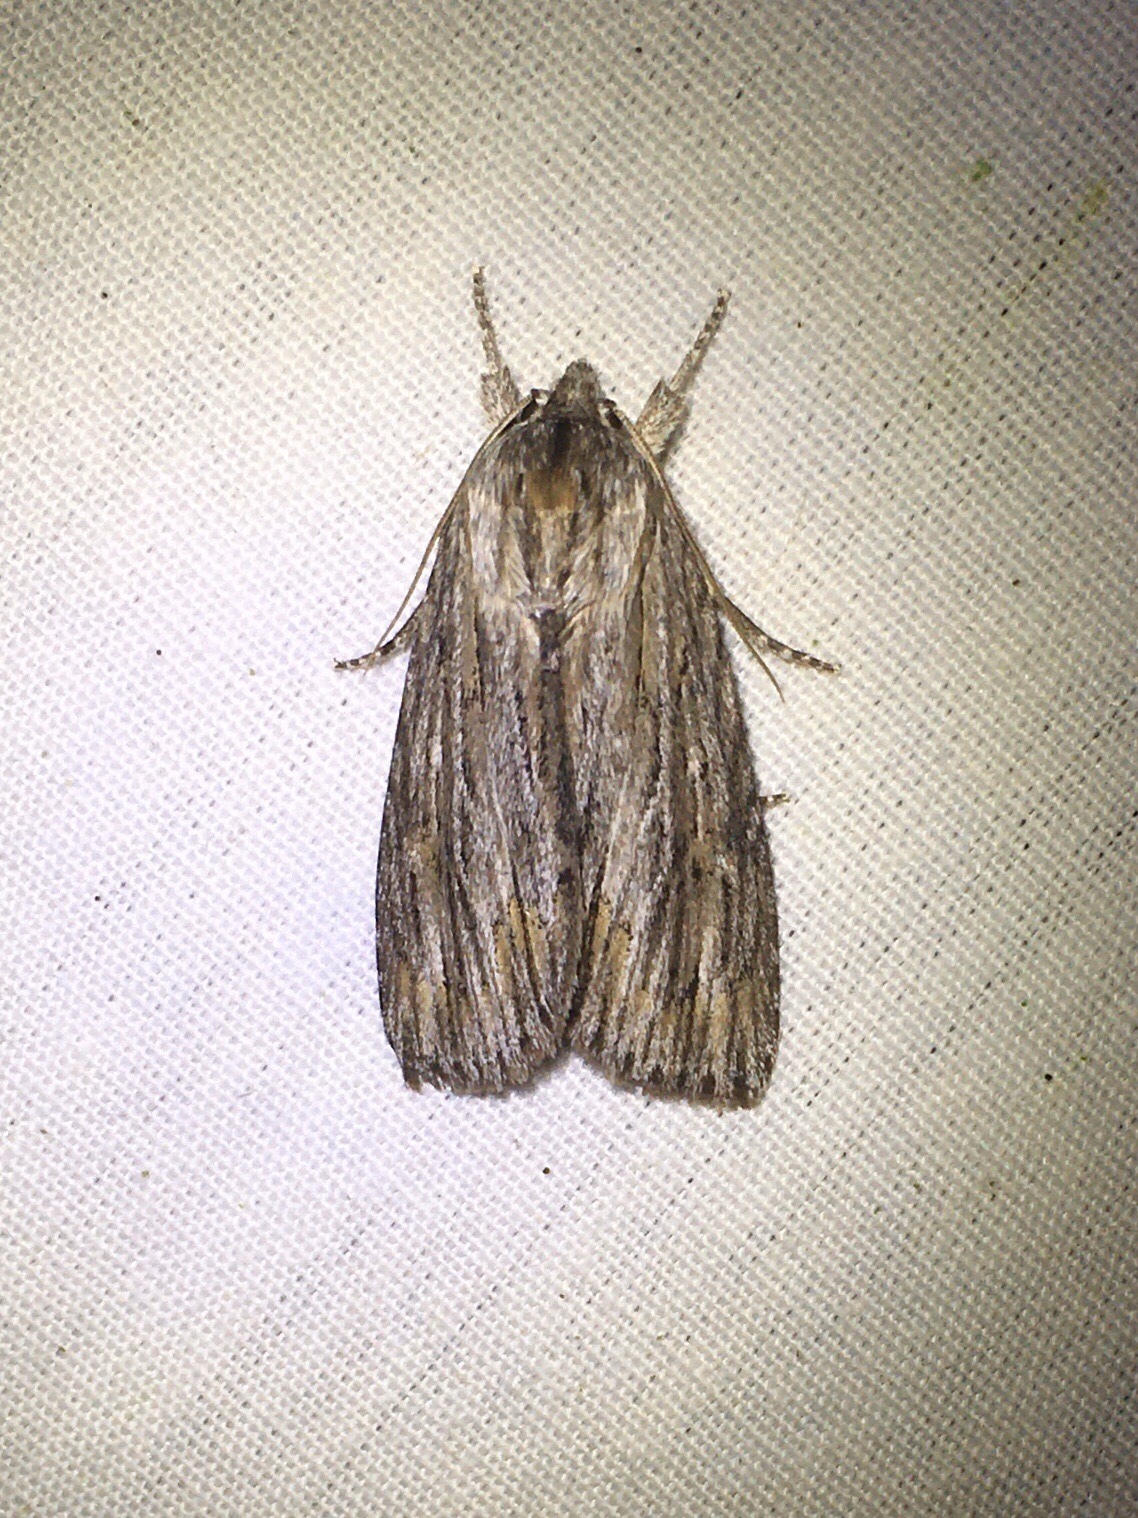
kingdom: Animalia
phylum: Arthropoda
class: Insecta
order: Lepidoptera
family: Noctuidae
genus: Acronicta
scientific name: Acronicta lithospila
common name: Streaked dagger
